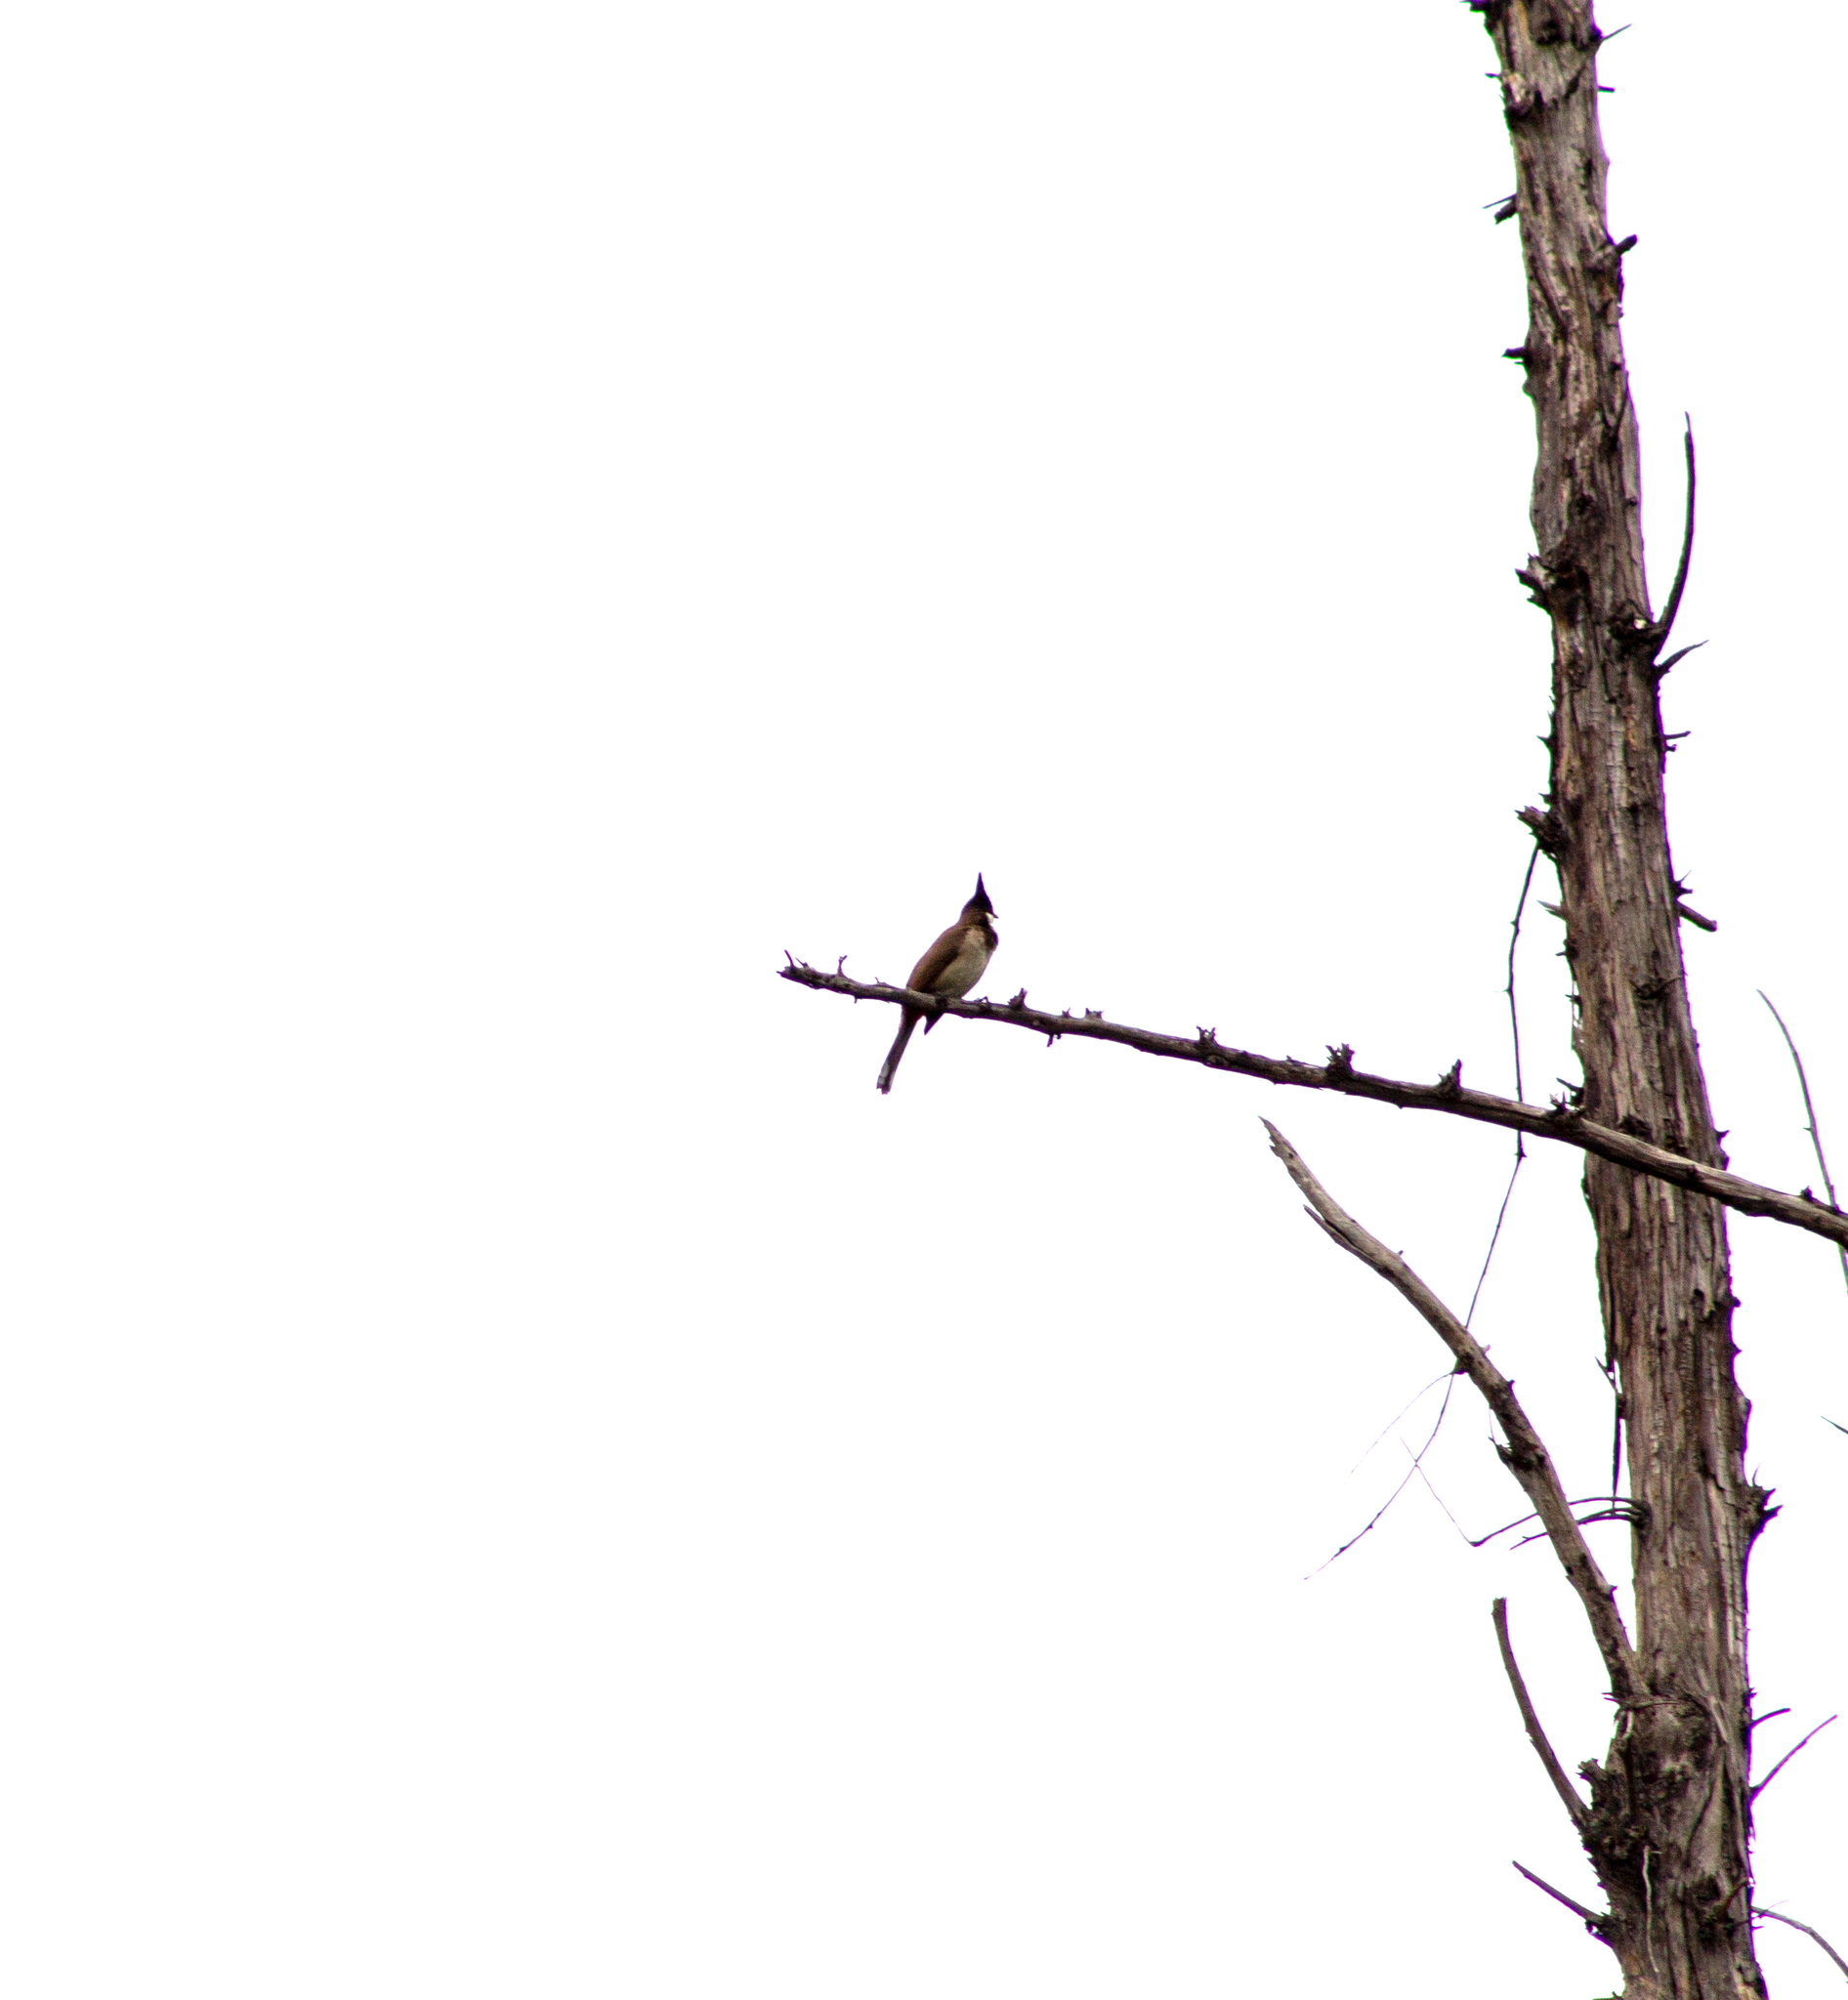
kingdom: Animalia
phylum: Chordata
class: Aves
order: Passeriformes
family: Pycnonotidae
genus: Pycnonotus
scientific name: Pycnonotus jocosus
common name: Red-whiskered bulbul
